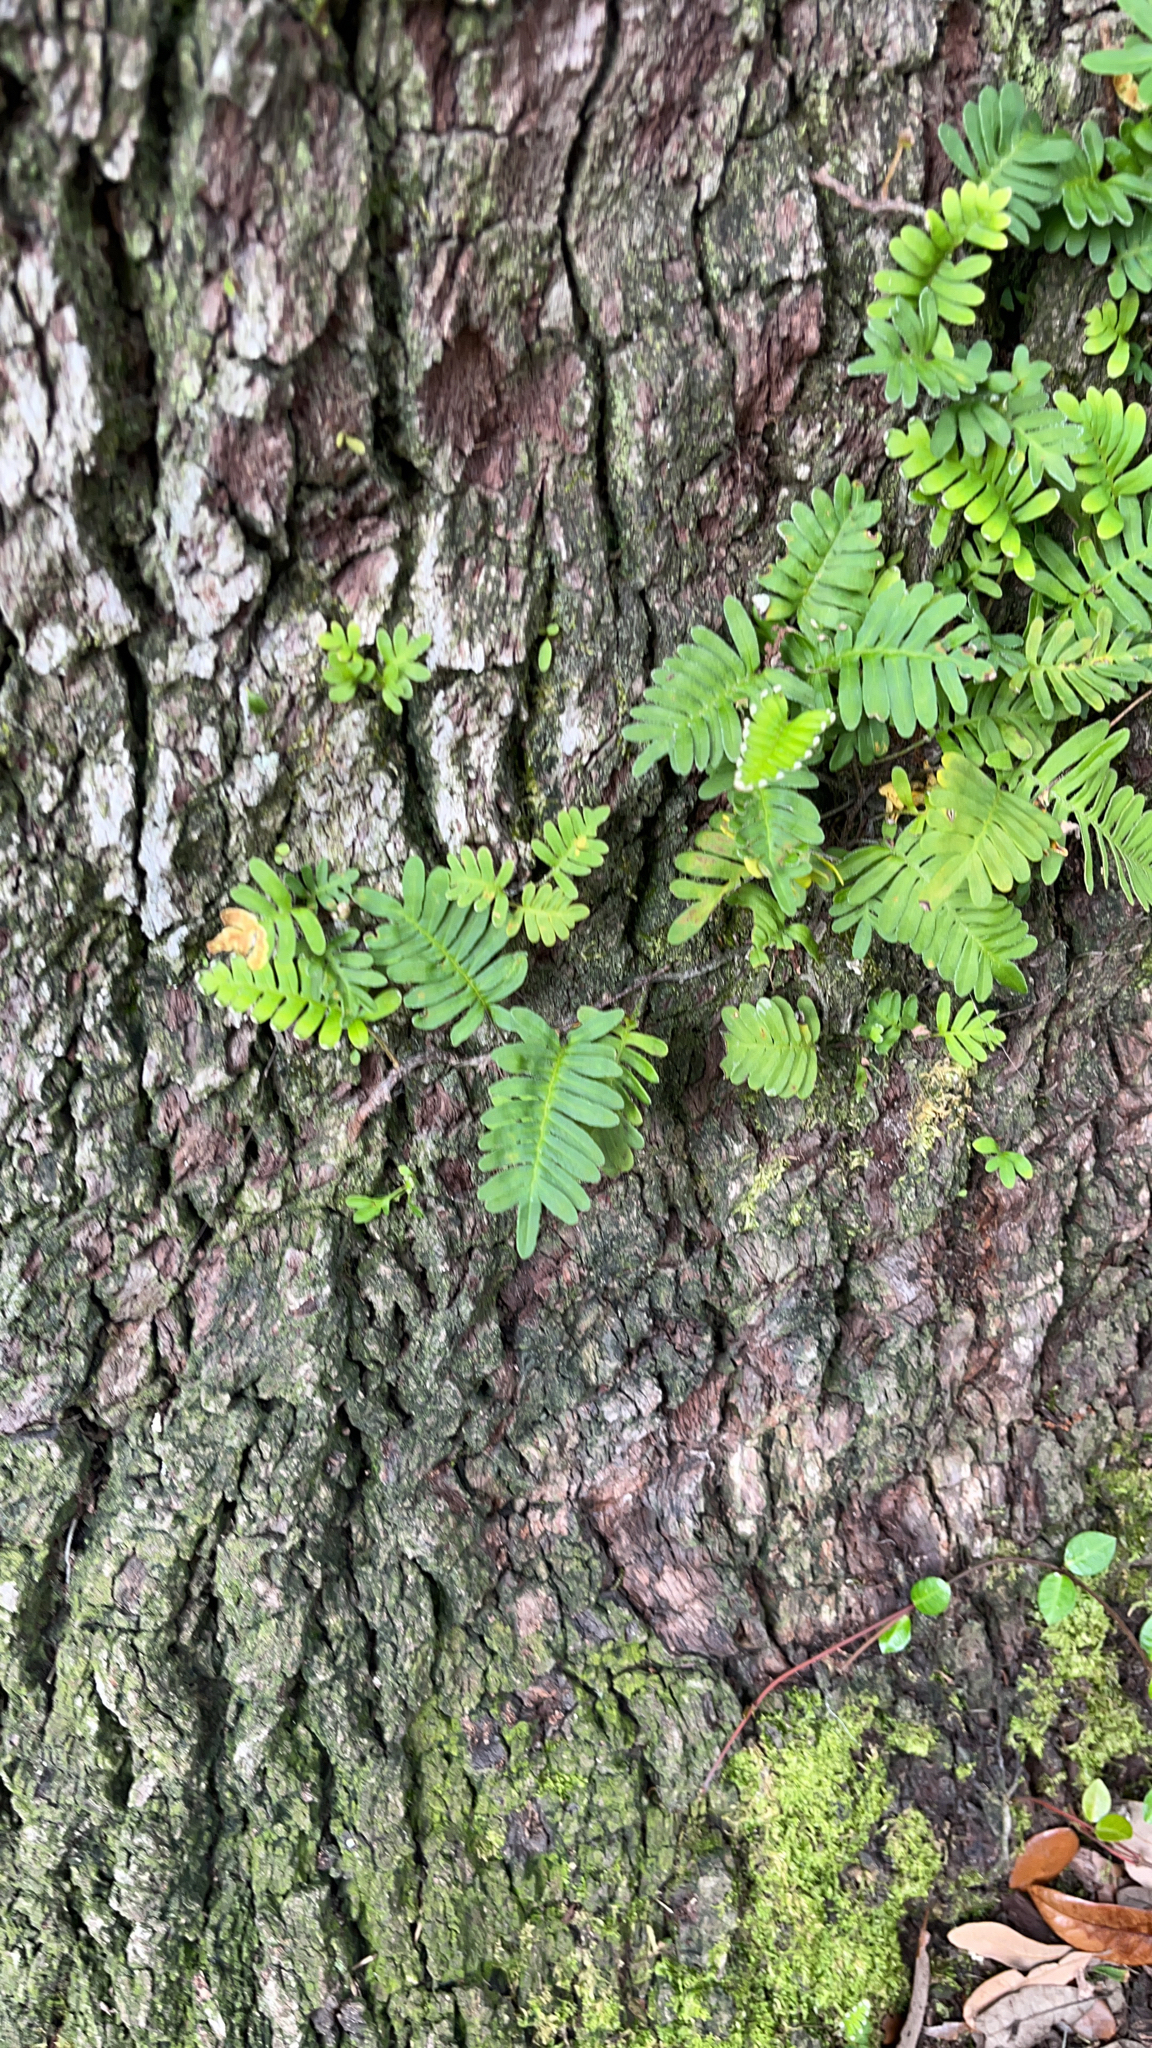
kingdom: Plantae
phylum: Tracheophyta
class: Polypodiopsida
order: Polypodiales
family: Polypodiaceae
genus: Pleopeltis
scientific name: Pleopeltis michauxiana
